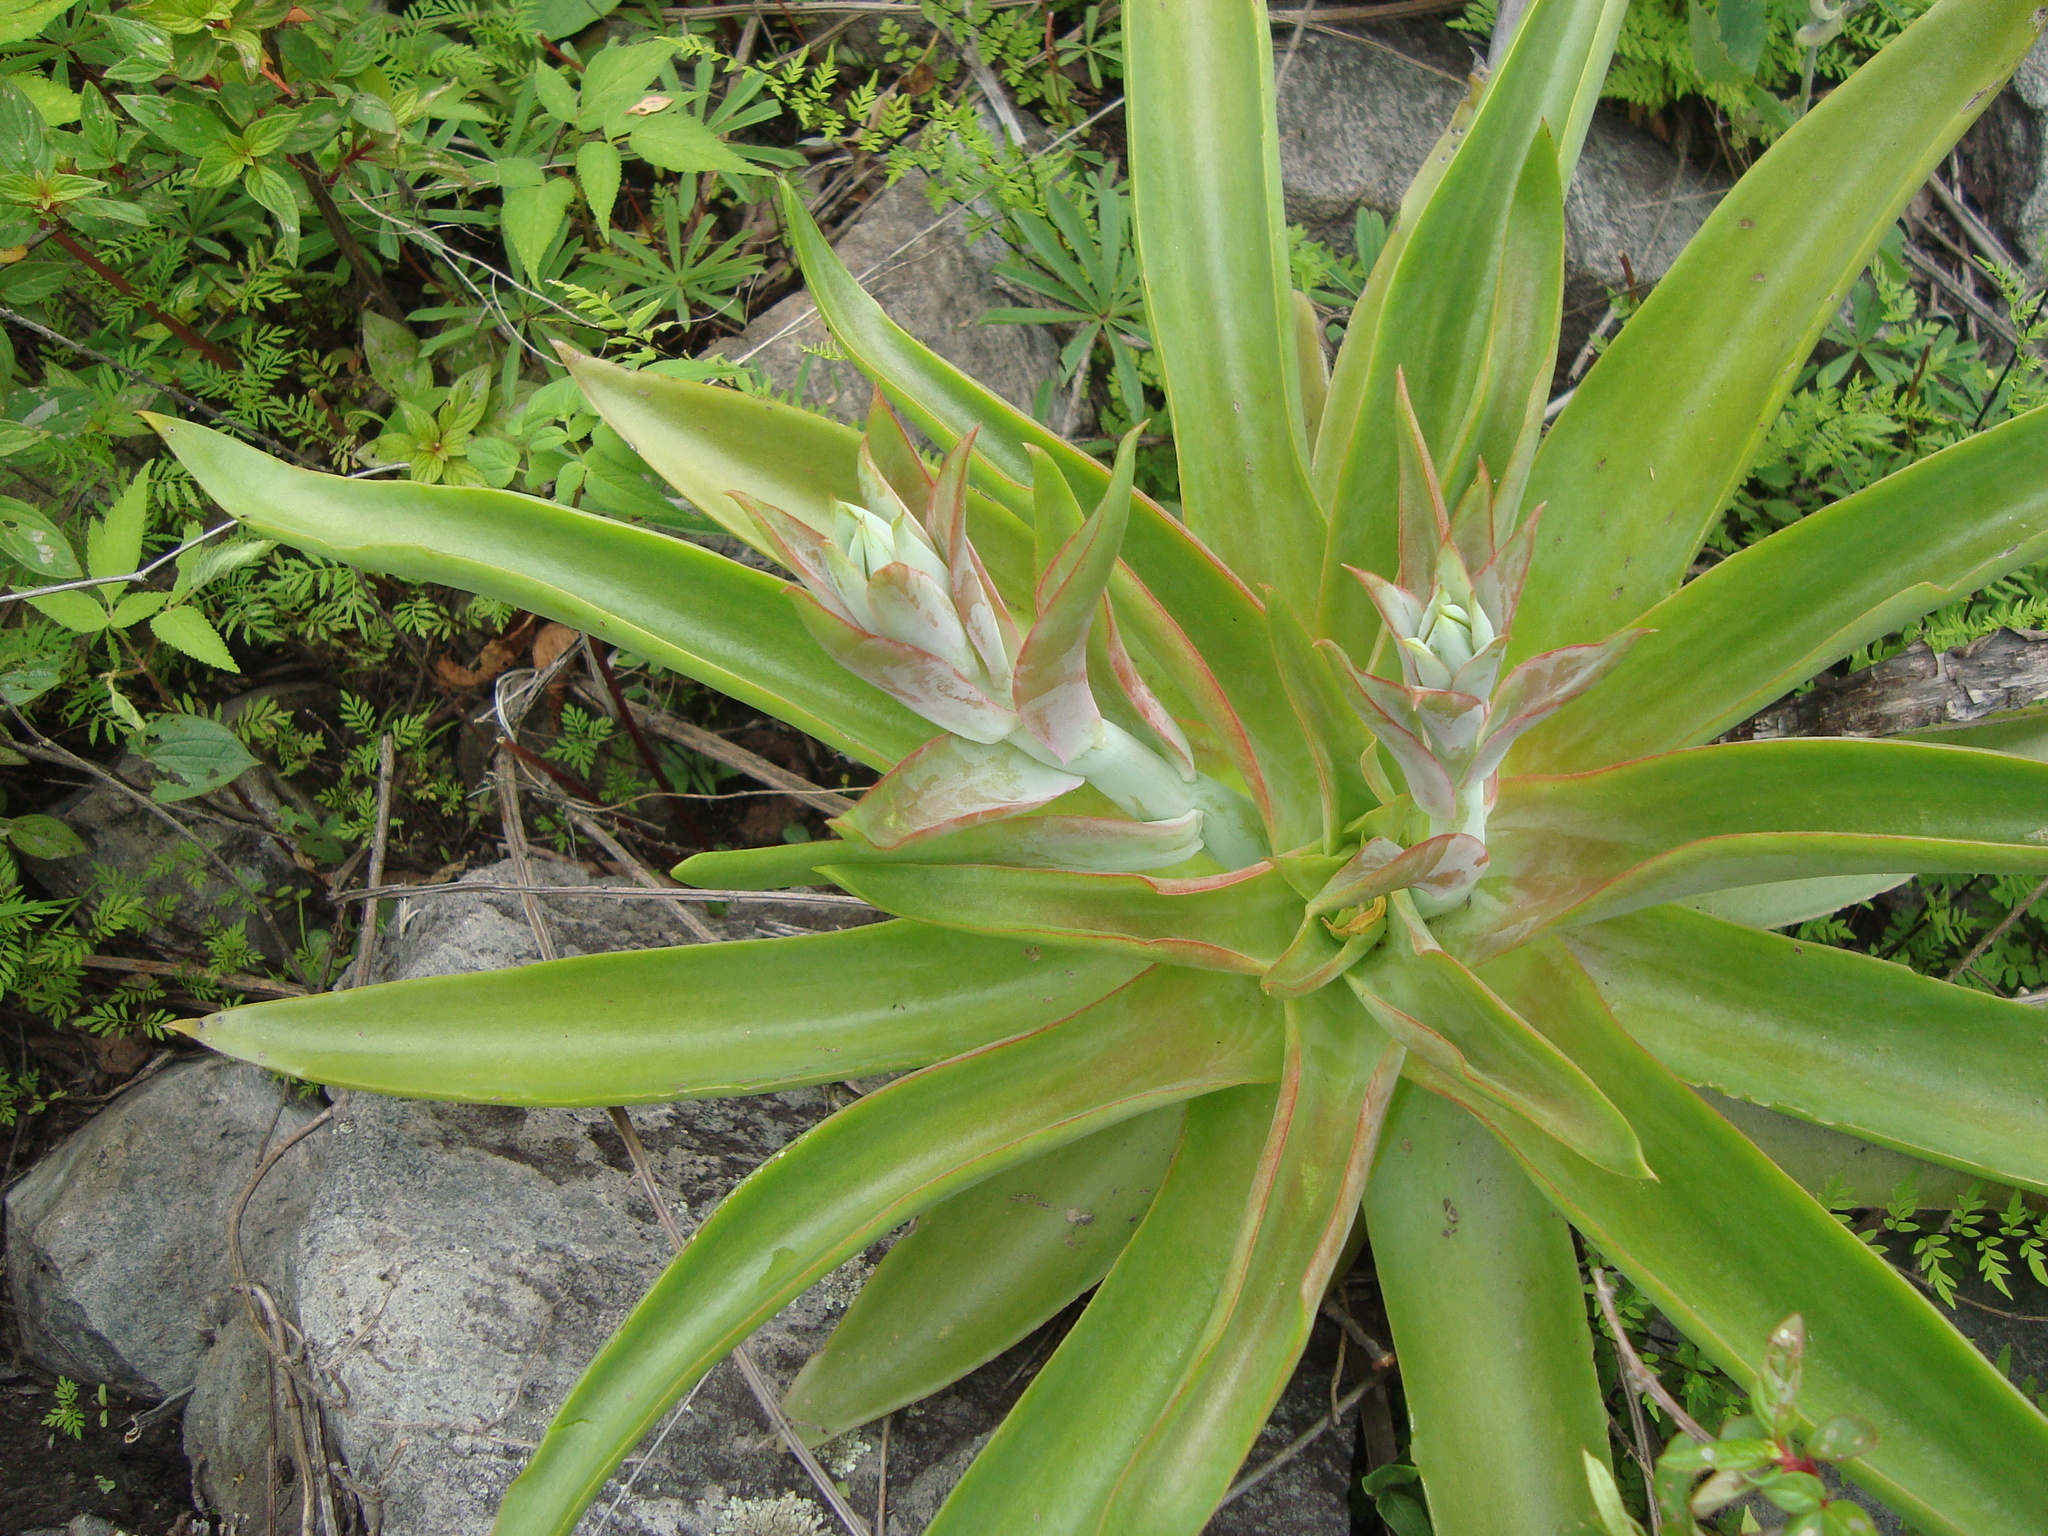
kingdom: Plantae
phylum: Tracheophyta
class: Magnoliopsida
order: Saxifragales
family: Crassulaceae
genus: Echeveria
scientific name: Echeveria novogaliciana
